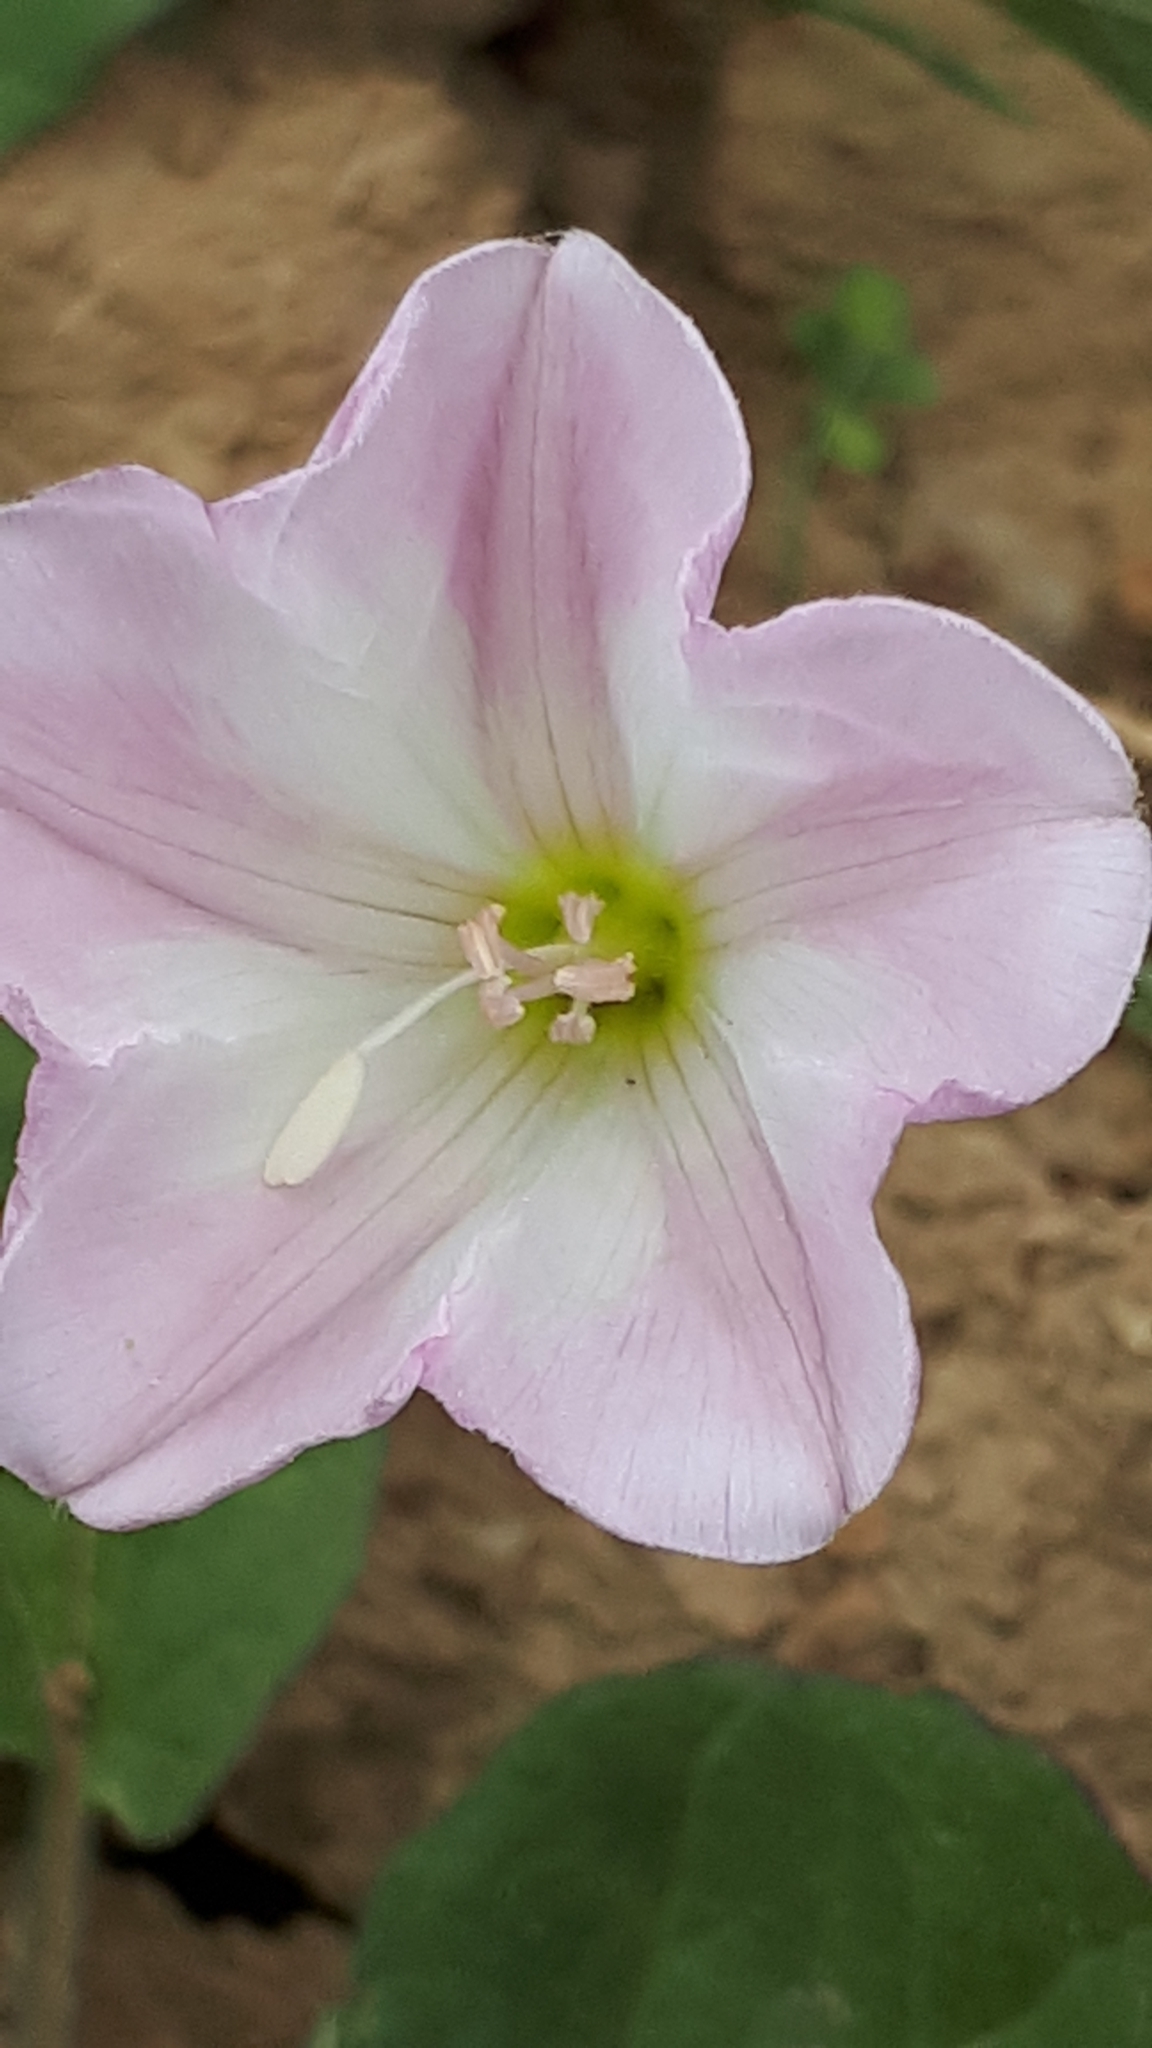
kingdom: Plantae
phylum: Tracheophyta
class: Magnoliopsida
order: Solanales
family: Convolvulaceae
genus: Convolvulus
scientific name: Convolvulus arvensis
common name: Field bindweed
